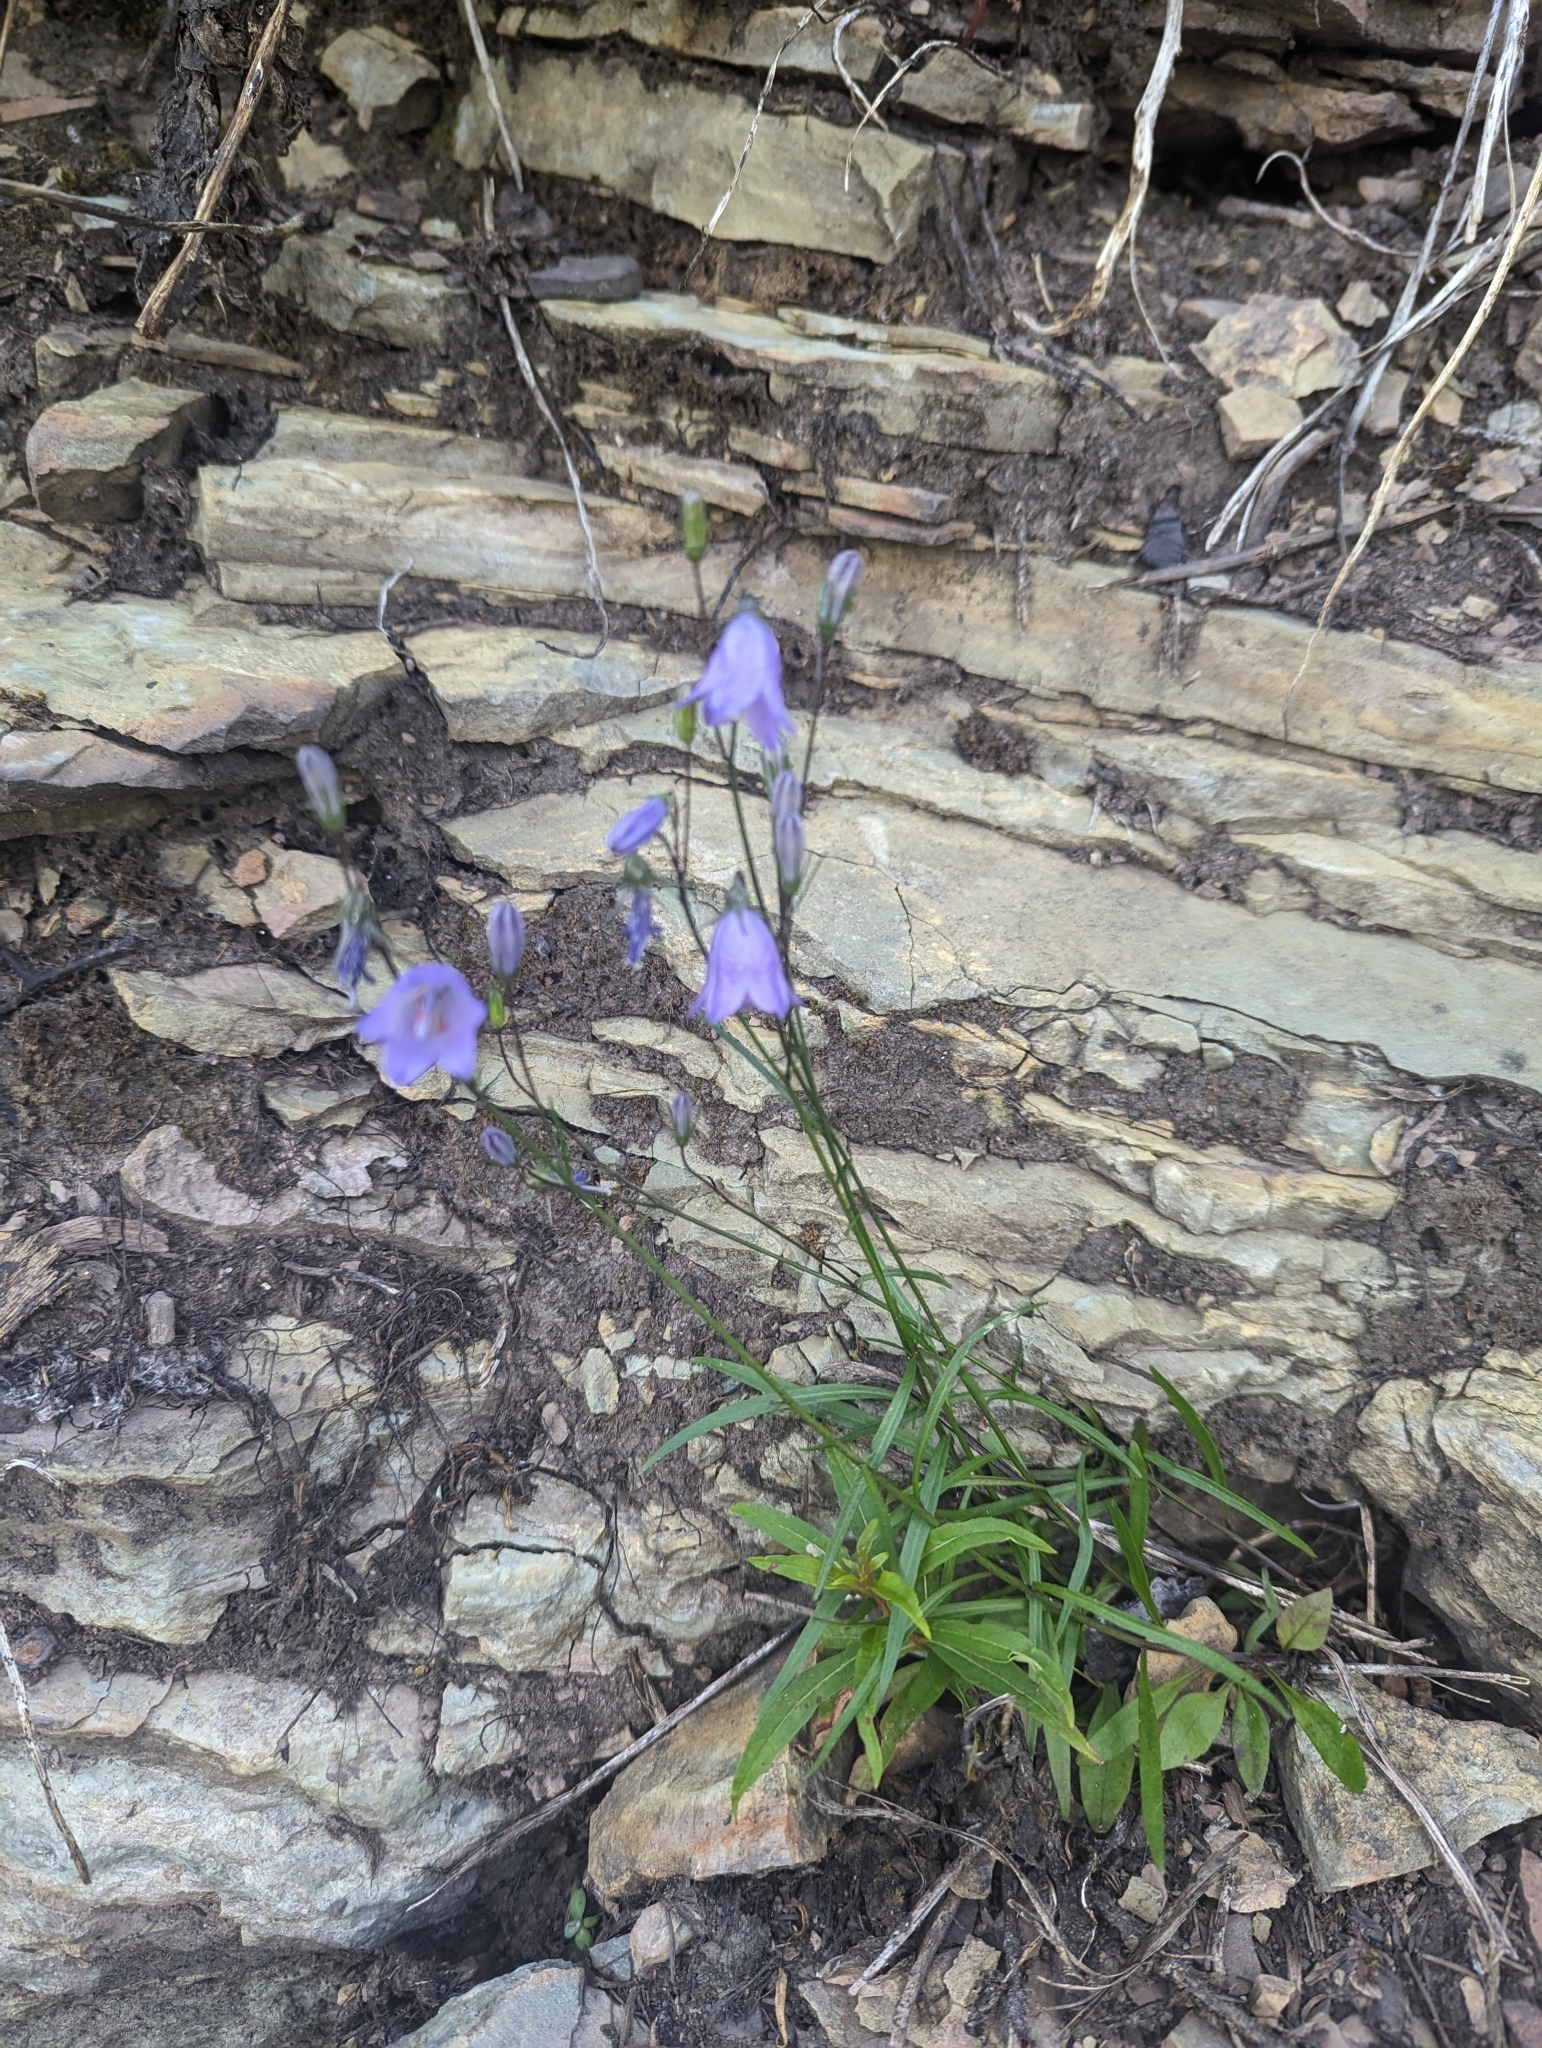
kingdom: Plantae
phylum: Tracheophyta
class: Magnoliopsida
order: Asterales
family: Campanulaceae
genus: Campanula
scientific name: Campanula alaskana
